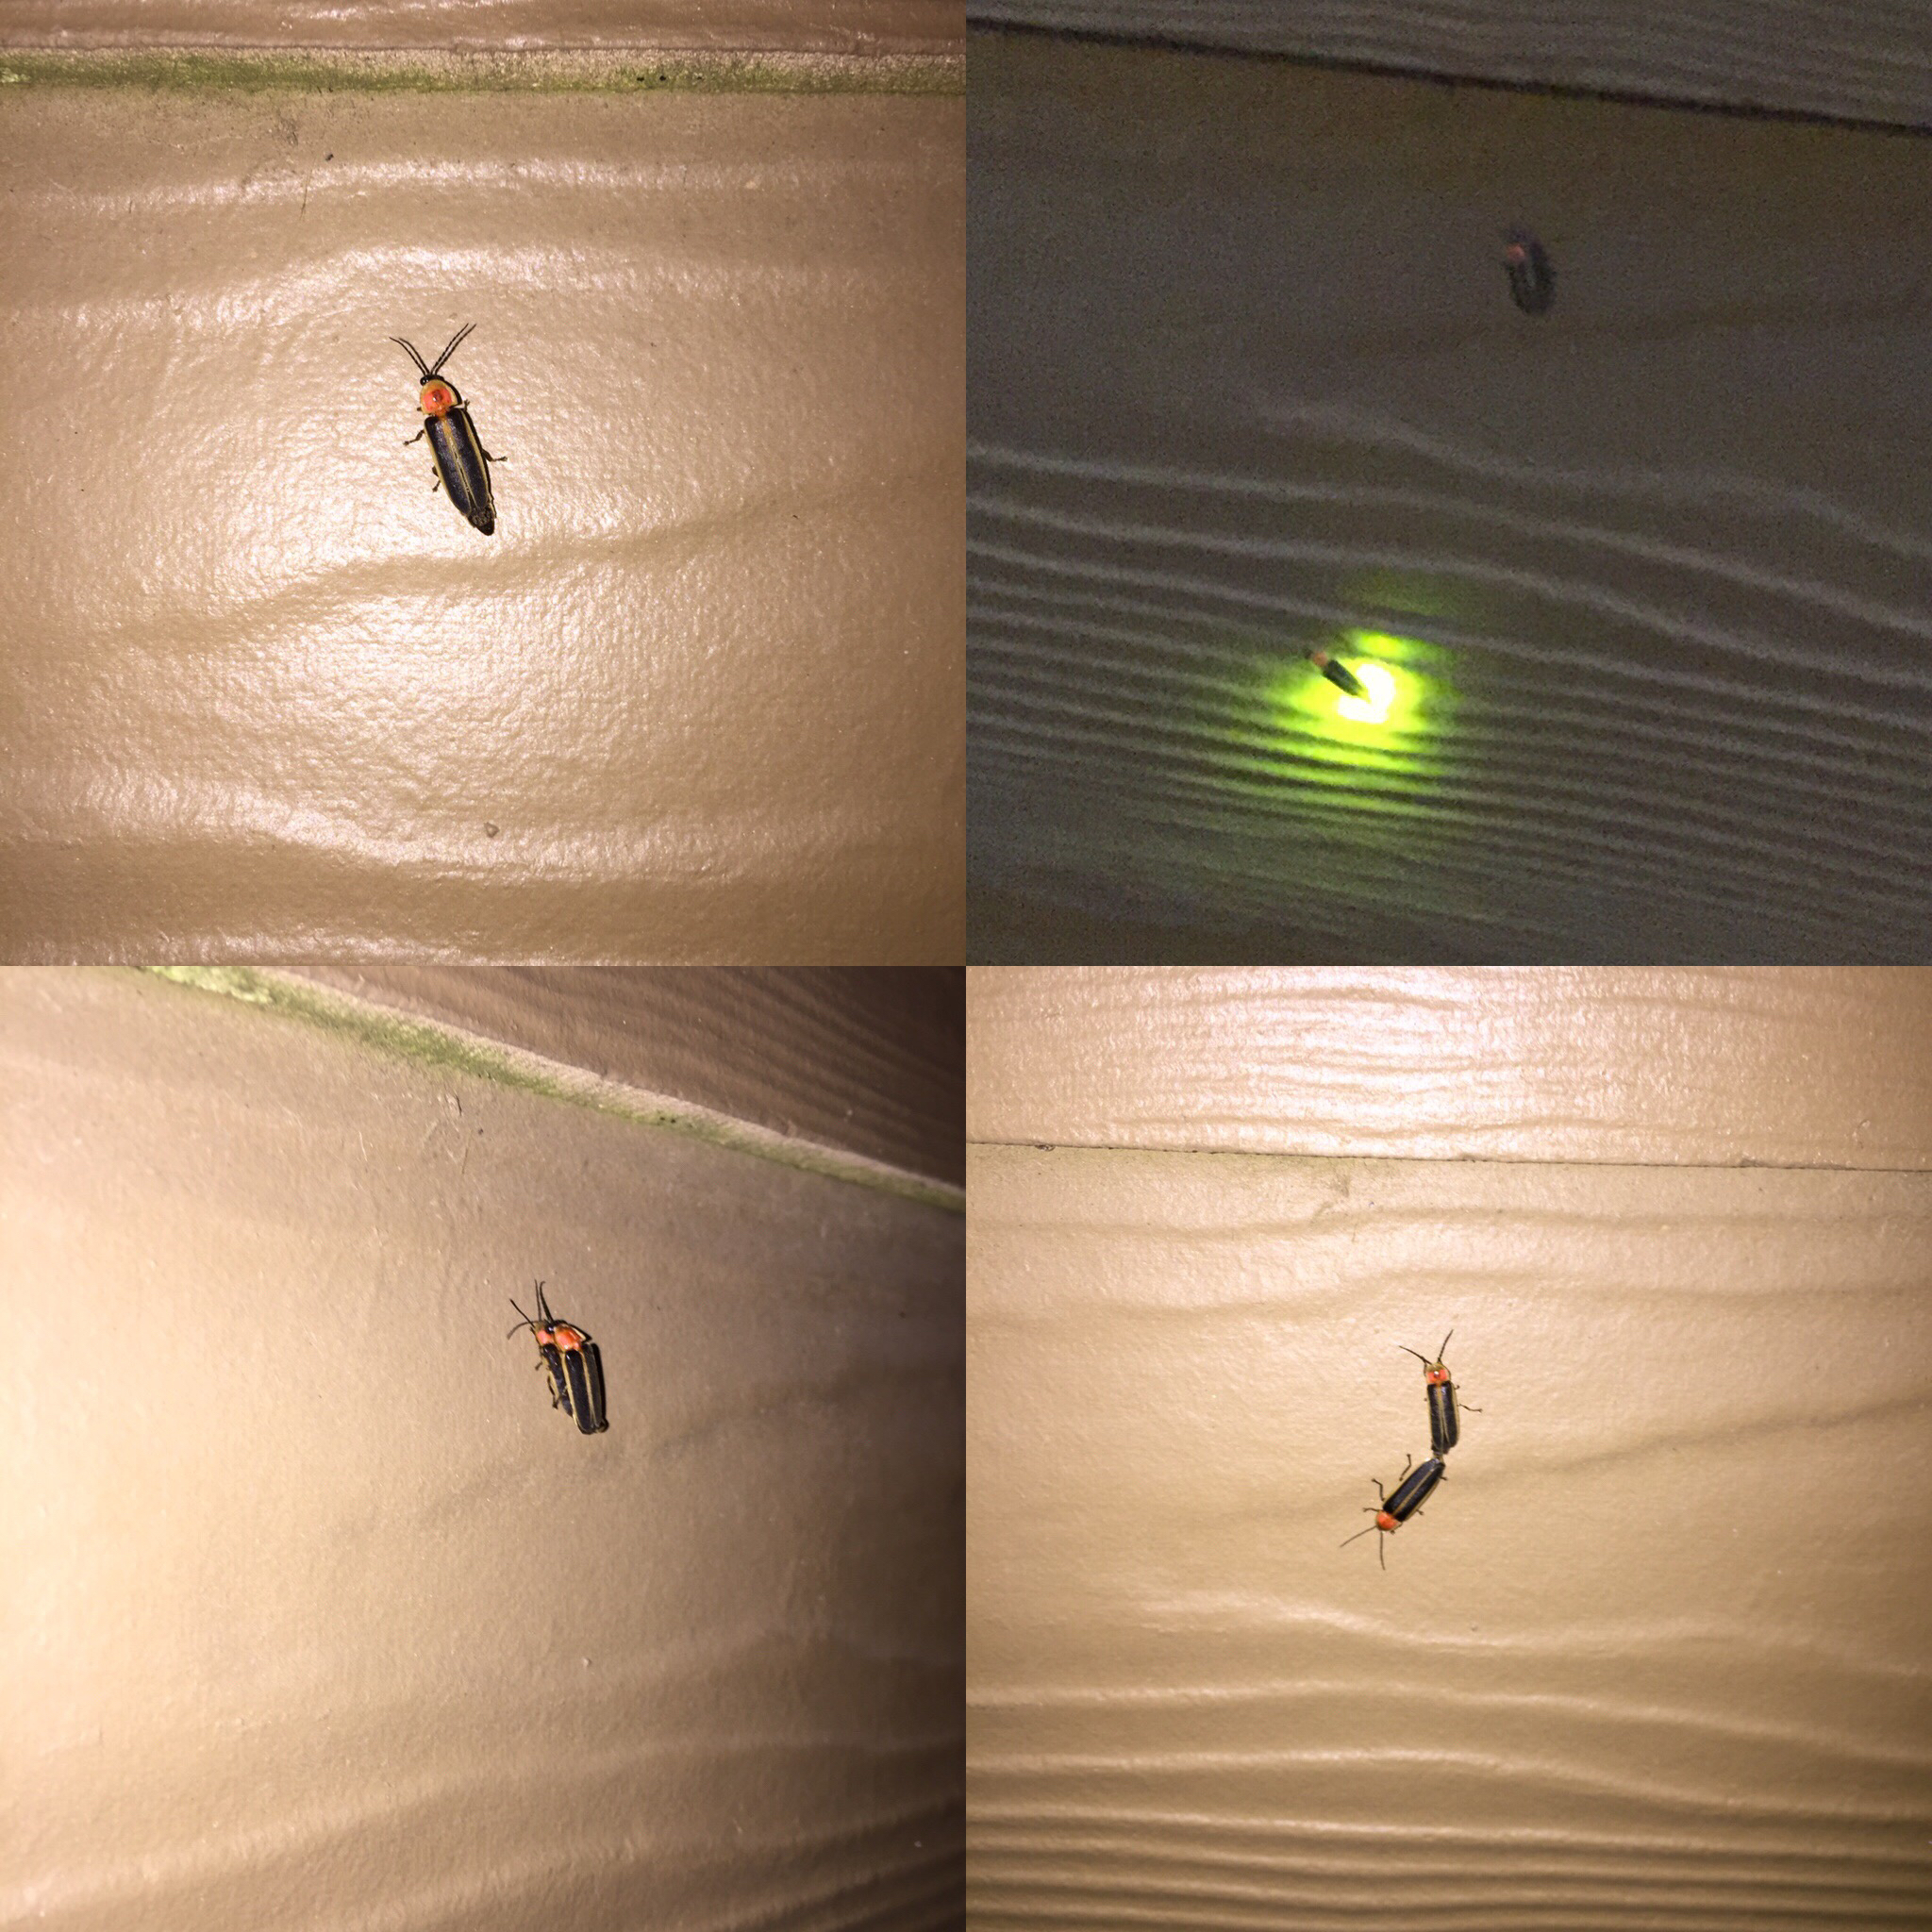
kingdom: Animalia
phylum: Arthropoda
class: Insecta
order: Coleoptera
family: Lampyridae
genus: Photinus
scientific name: Photinus pyralis
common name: Big dipper firefly
